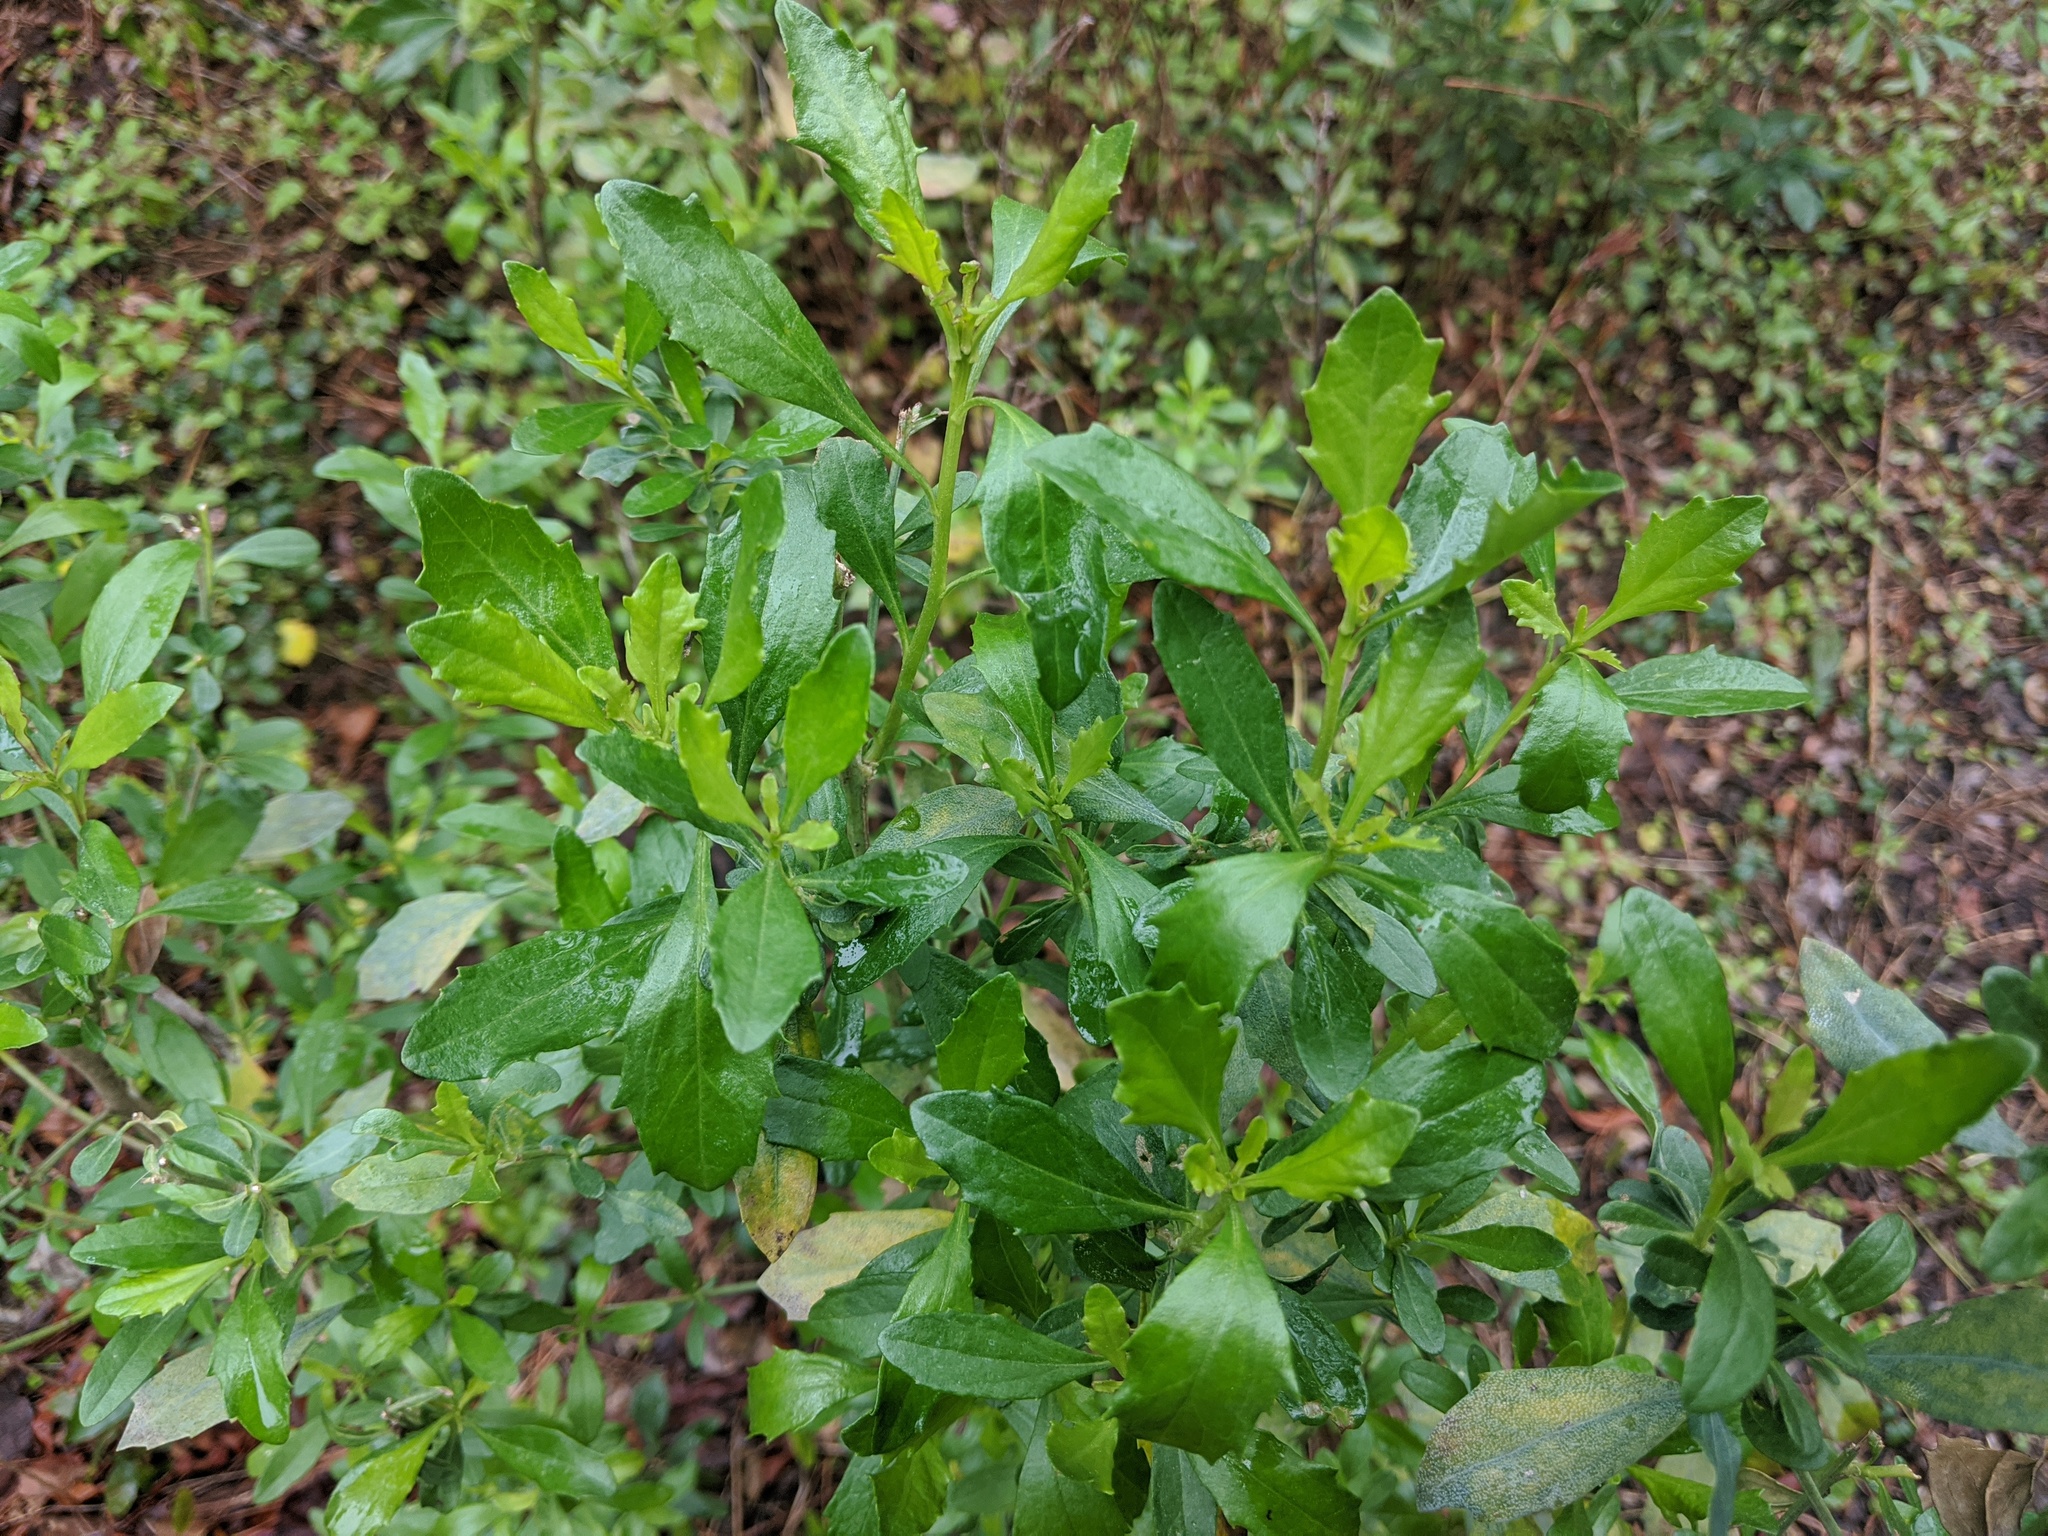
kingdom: Plantae
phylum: Tracheophyta
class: Magnoliopsida
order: Asterales
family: Asteraceae
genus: Baccharis
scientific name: Baccharis halimifolia
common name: Eastern baccharis
